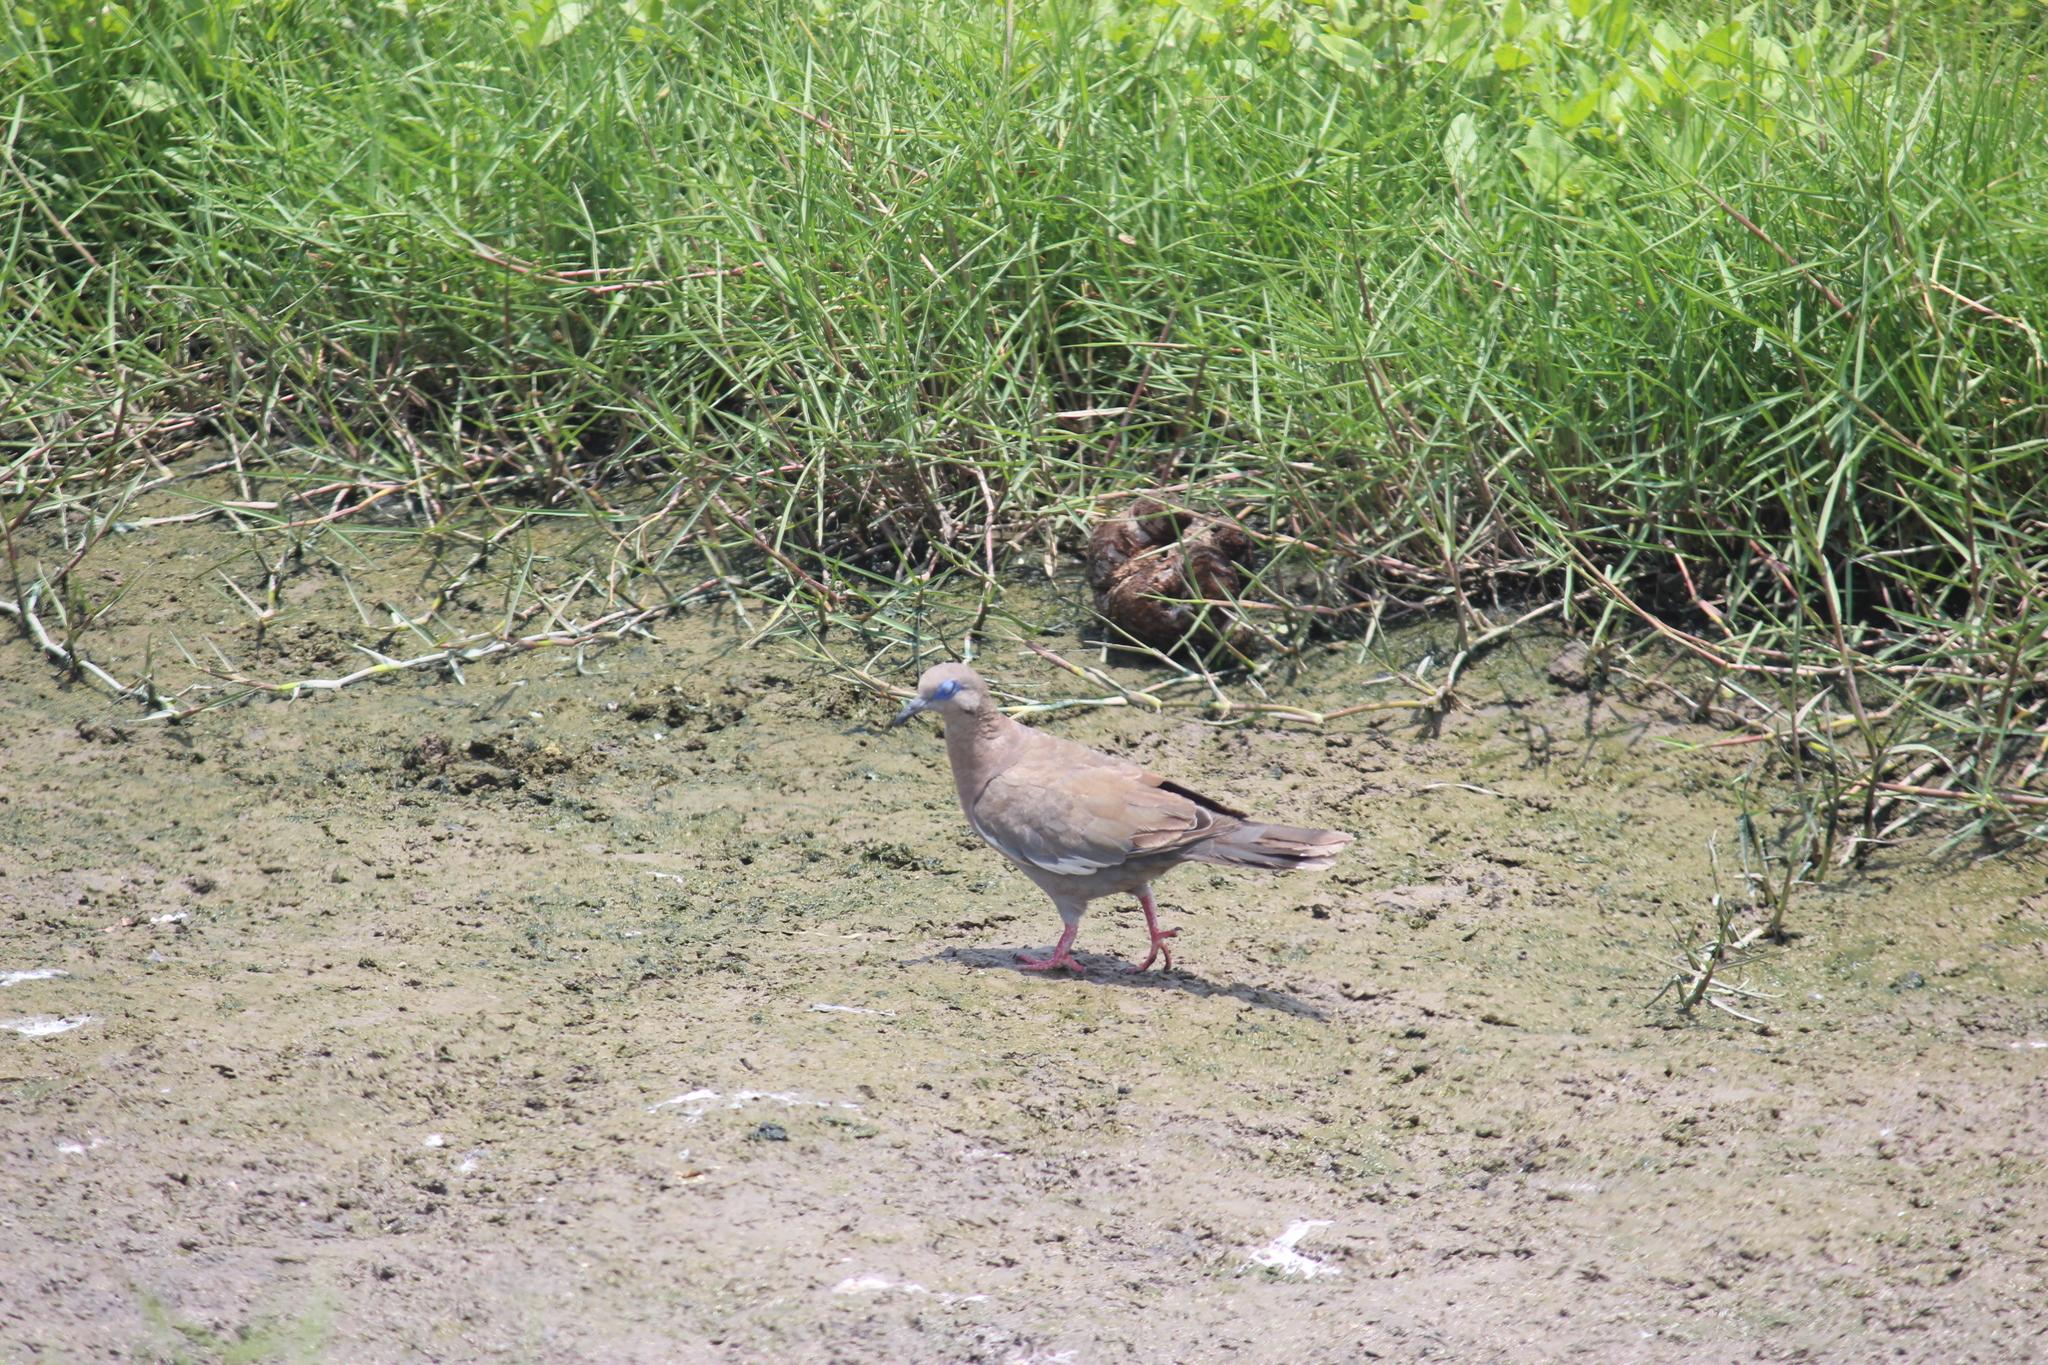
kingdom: Animalia
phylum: Chordata
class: Aves
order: Columbiformes
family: Columbidae
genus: Zenaida
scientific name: Zenaida meloda
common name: West peruvian dove
